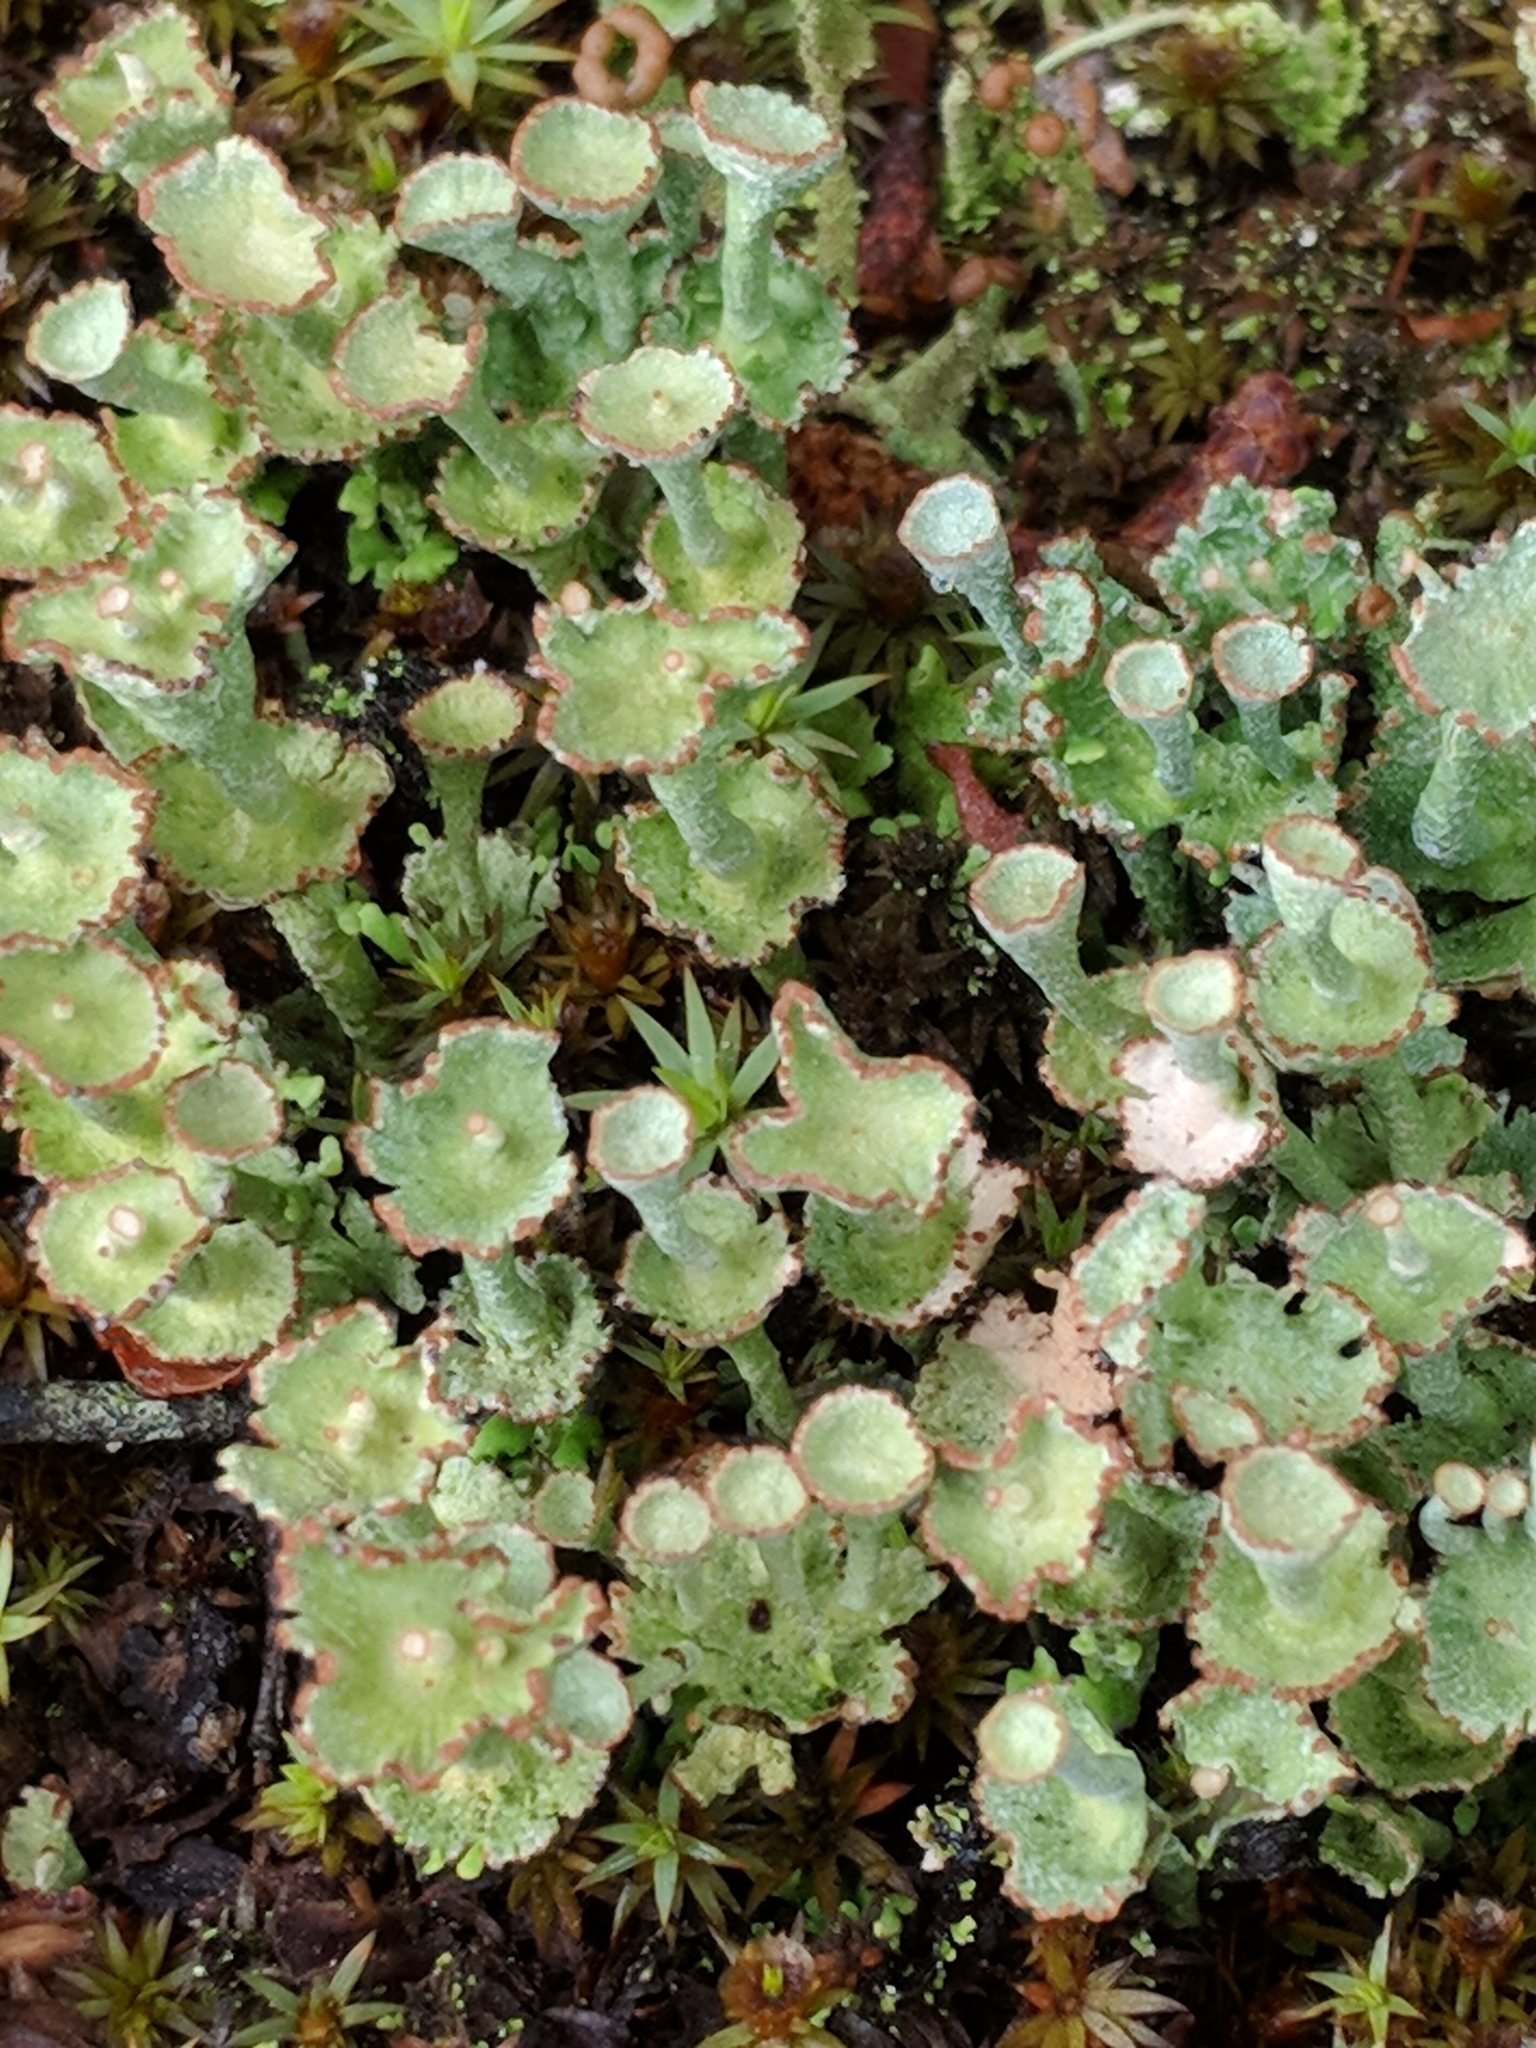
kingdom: Fungi
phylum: Ascomycota
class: Lecanoromycetes
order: Lecanorales
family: Cladoniaceae
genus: Cladonia
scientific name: Cladonia cervicornis
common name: Browned pixie-cup lichen
